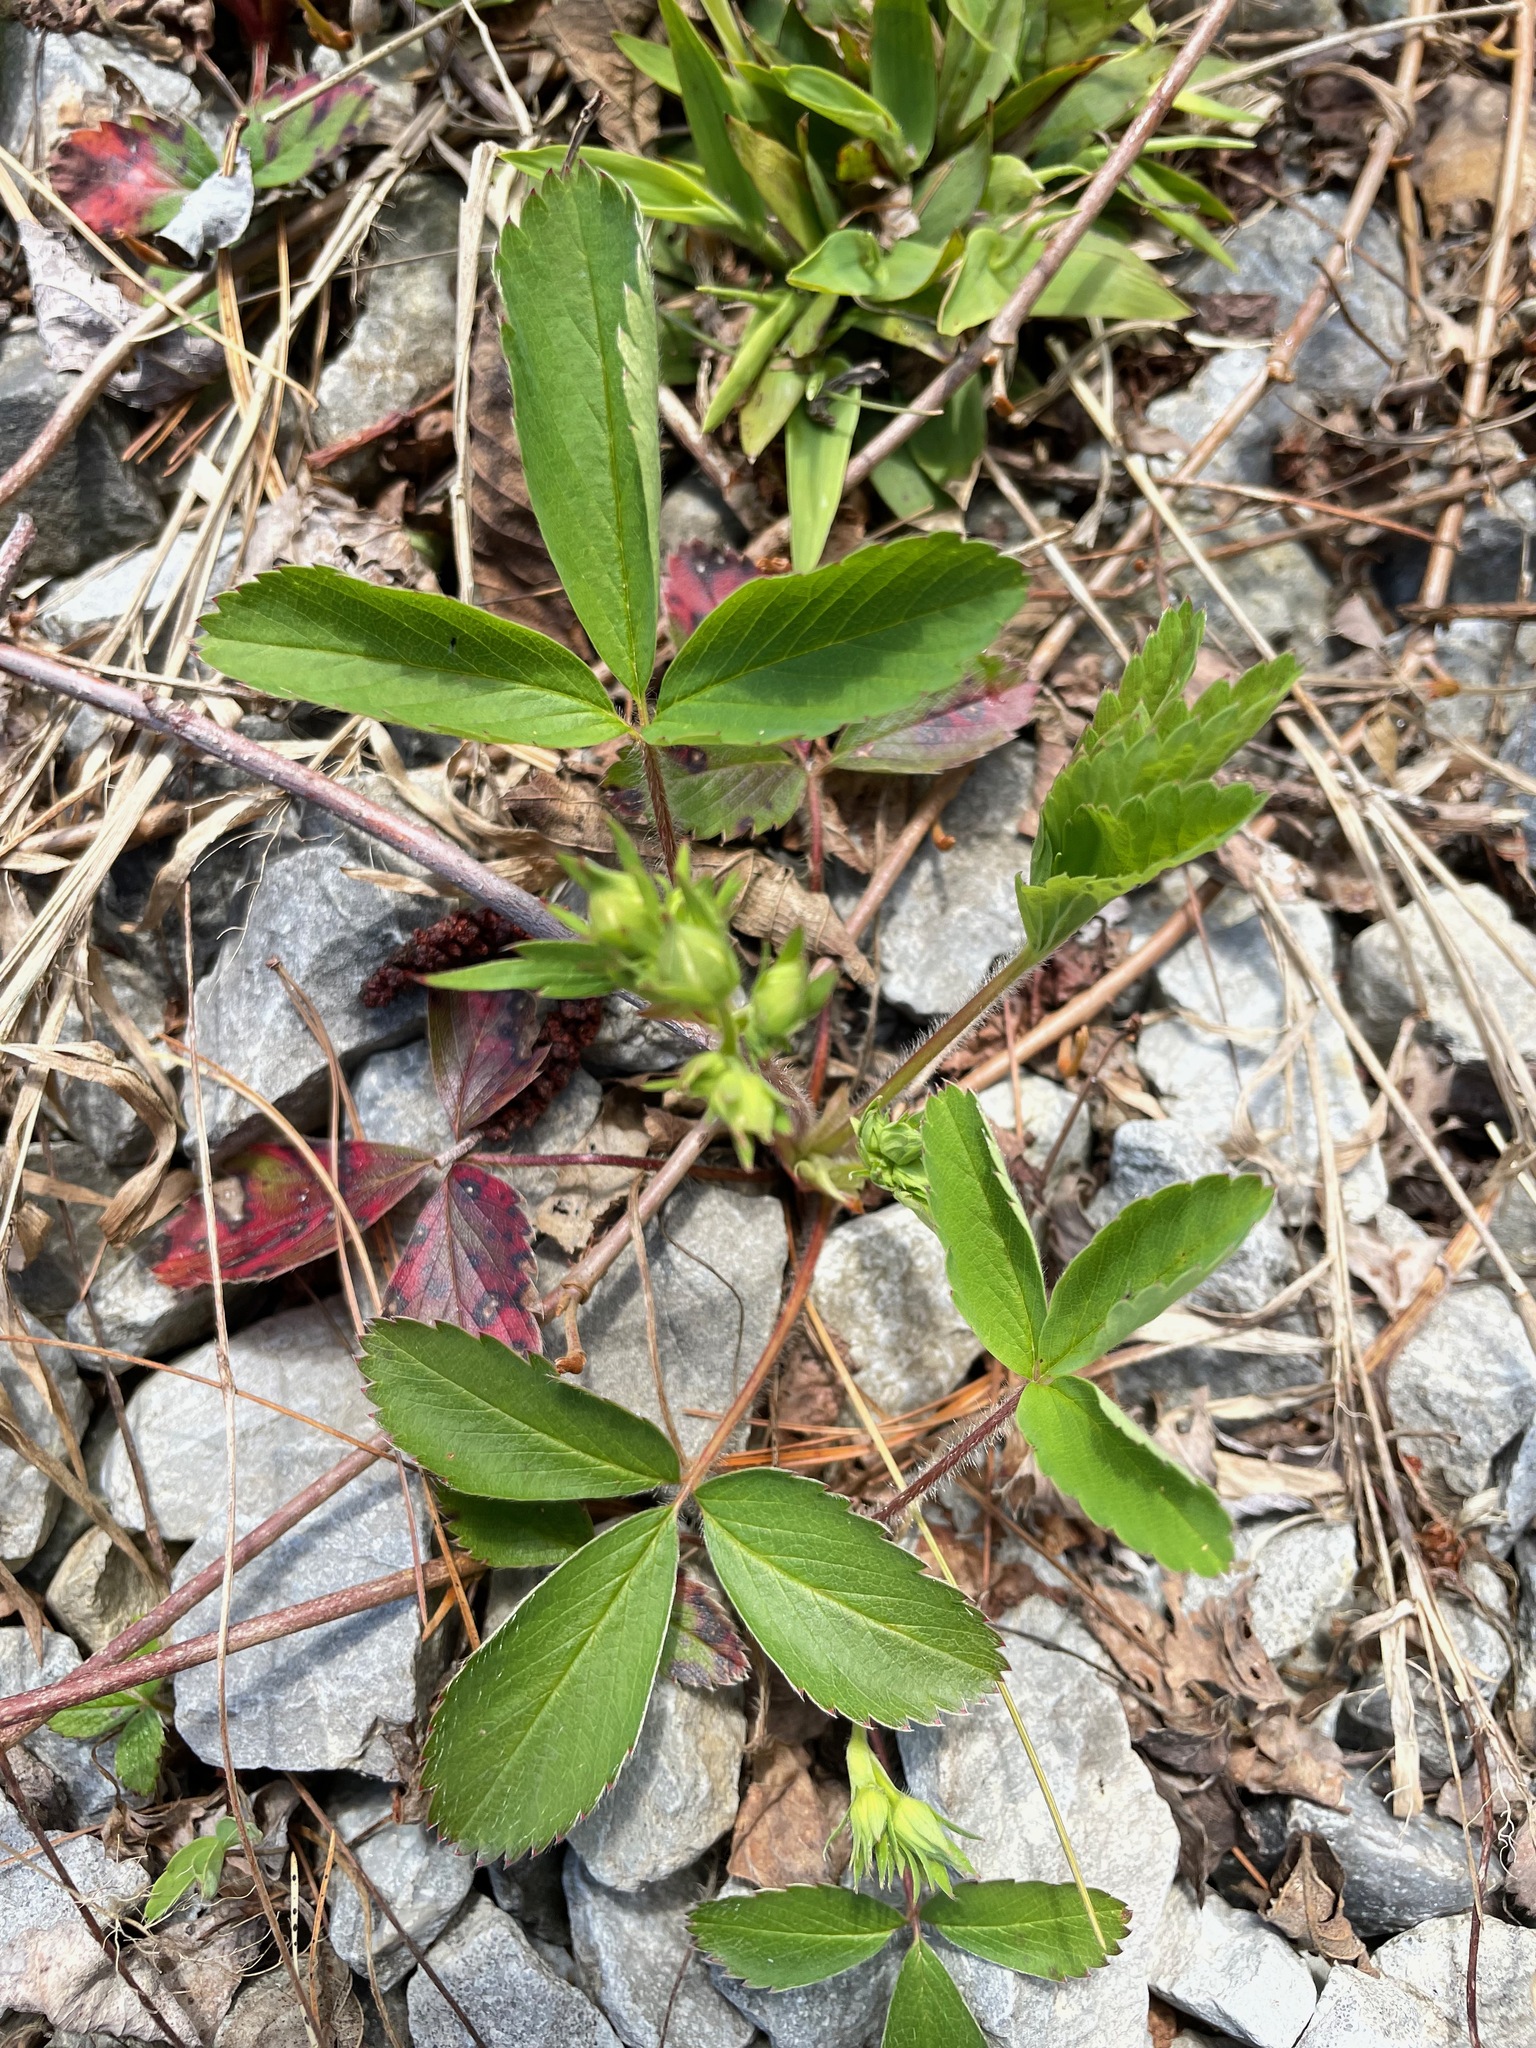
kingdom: Plantae
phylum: Tracheophyta
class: Magnoliopsida
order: Rosales
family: Rosaceae
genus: Fragaria
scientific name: Fragaria virginiana
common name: Thickleaved wild strawberry
